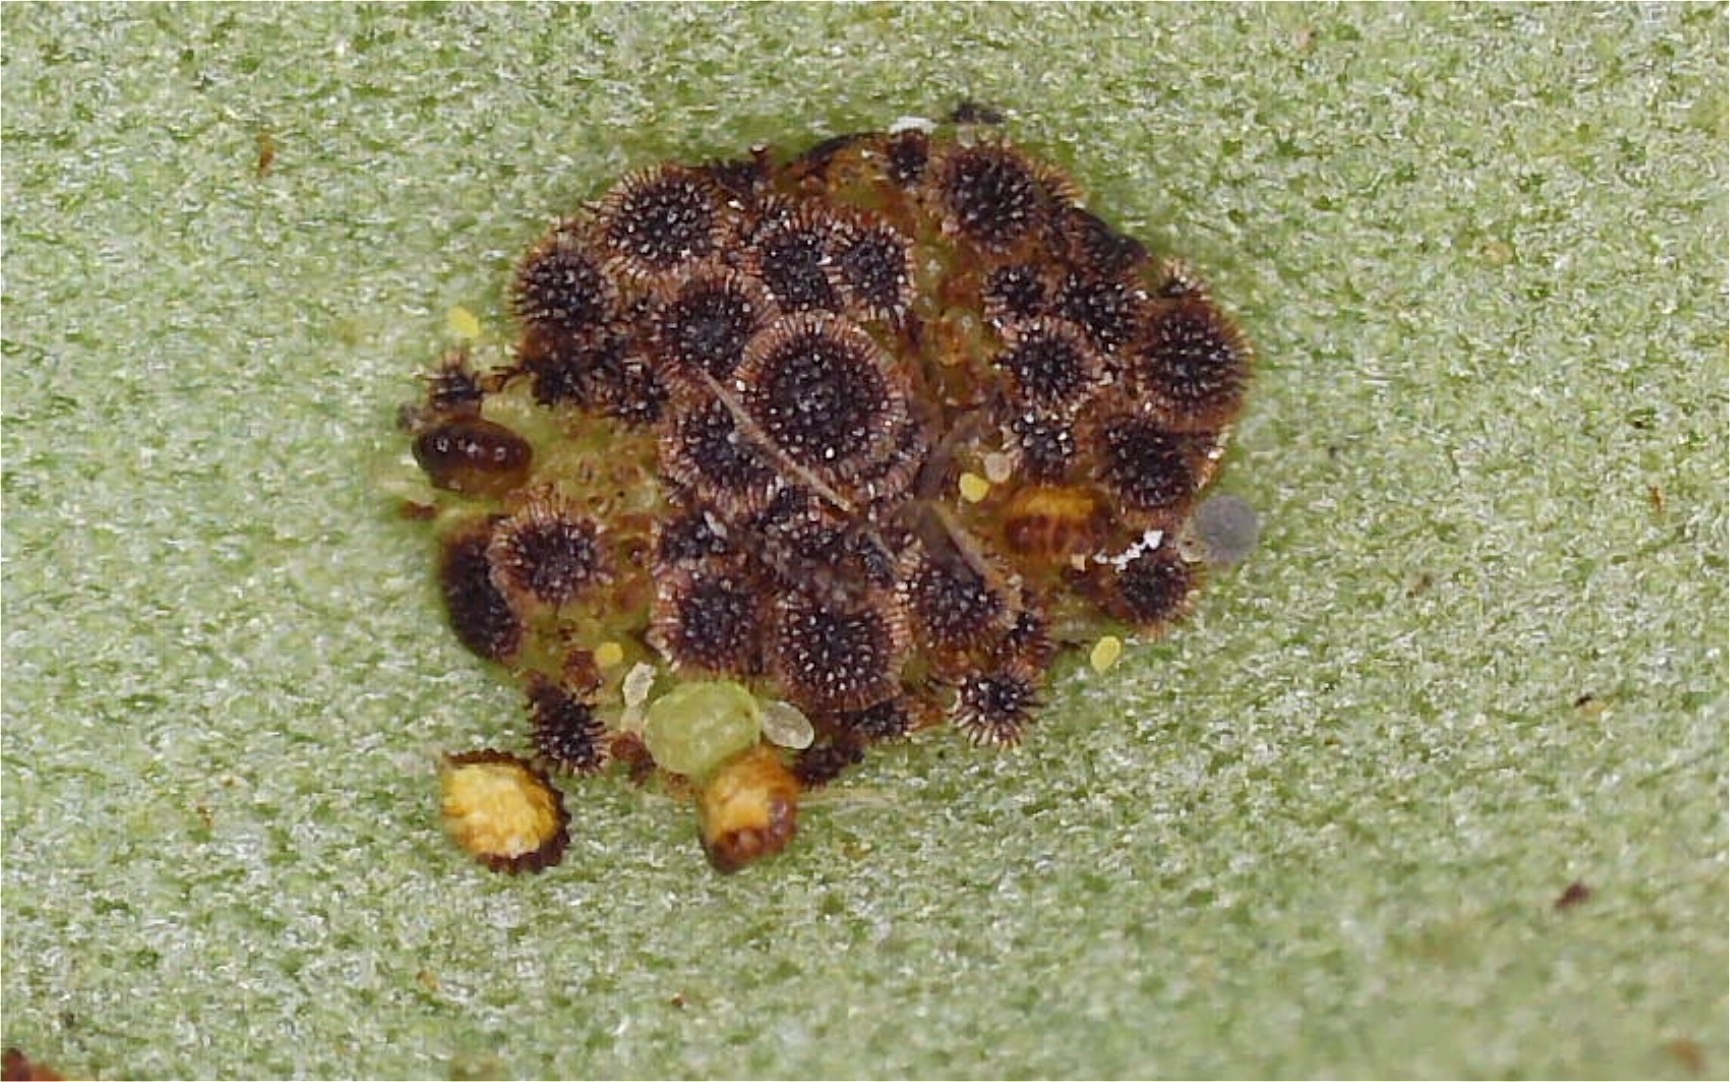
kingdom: Plantae
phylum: Tracheophyta
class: Polypodiopsida
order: Polypodiales
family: Polypodiaceae
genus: Lepisorus
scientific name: Lepisorus thunbergianus
